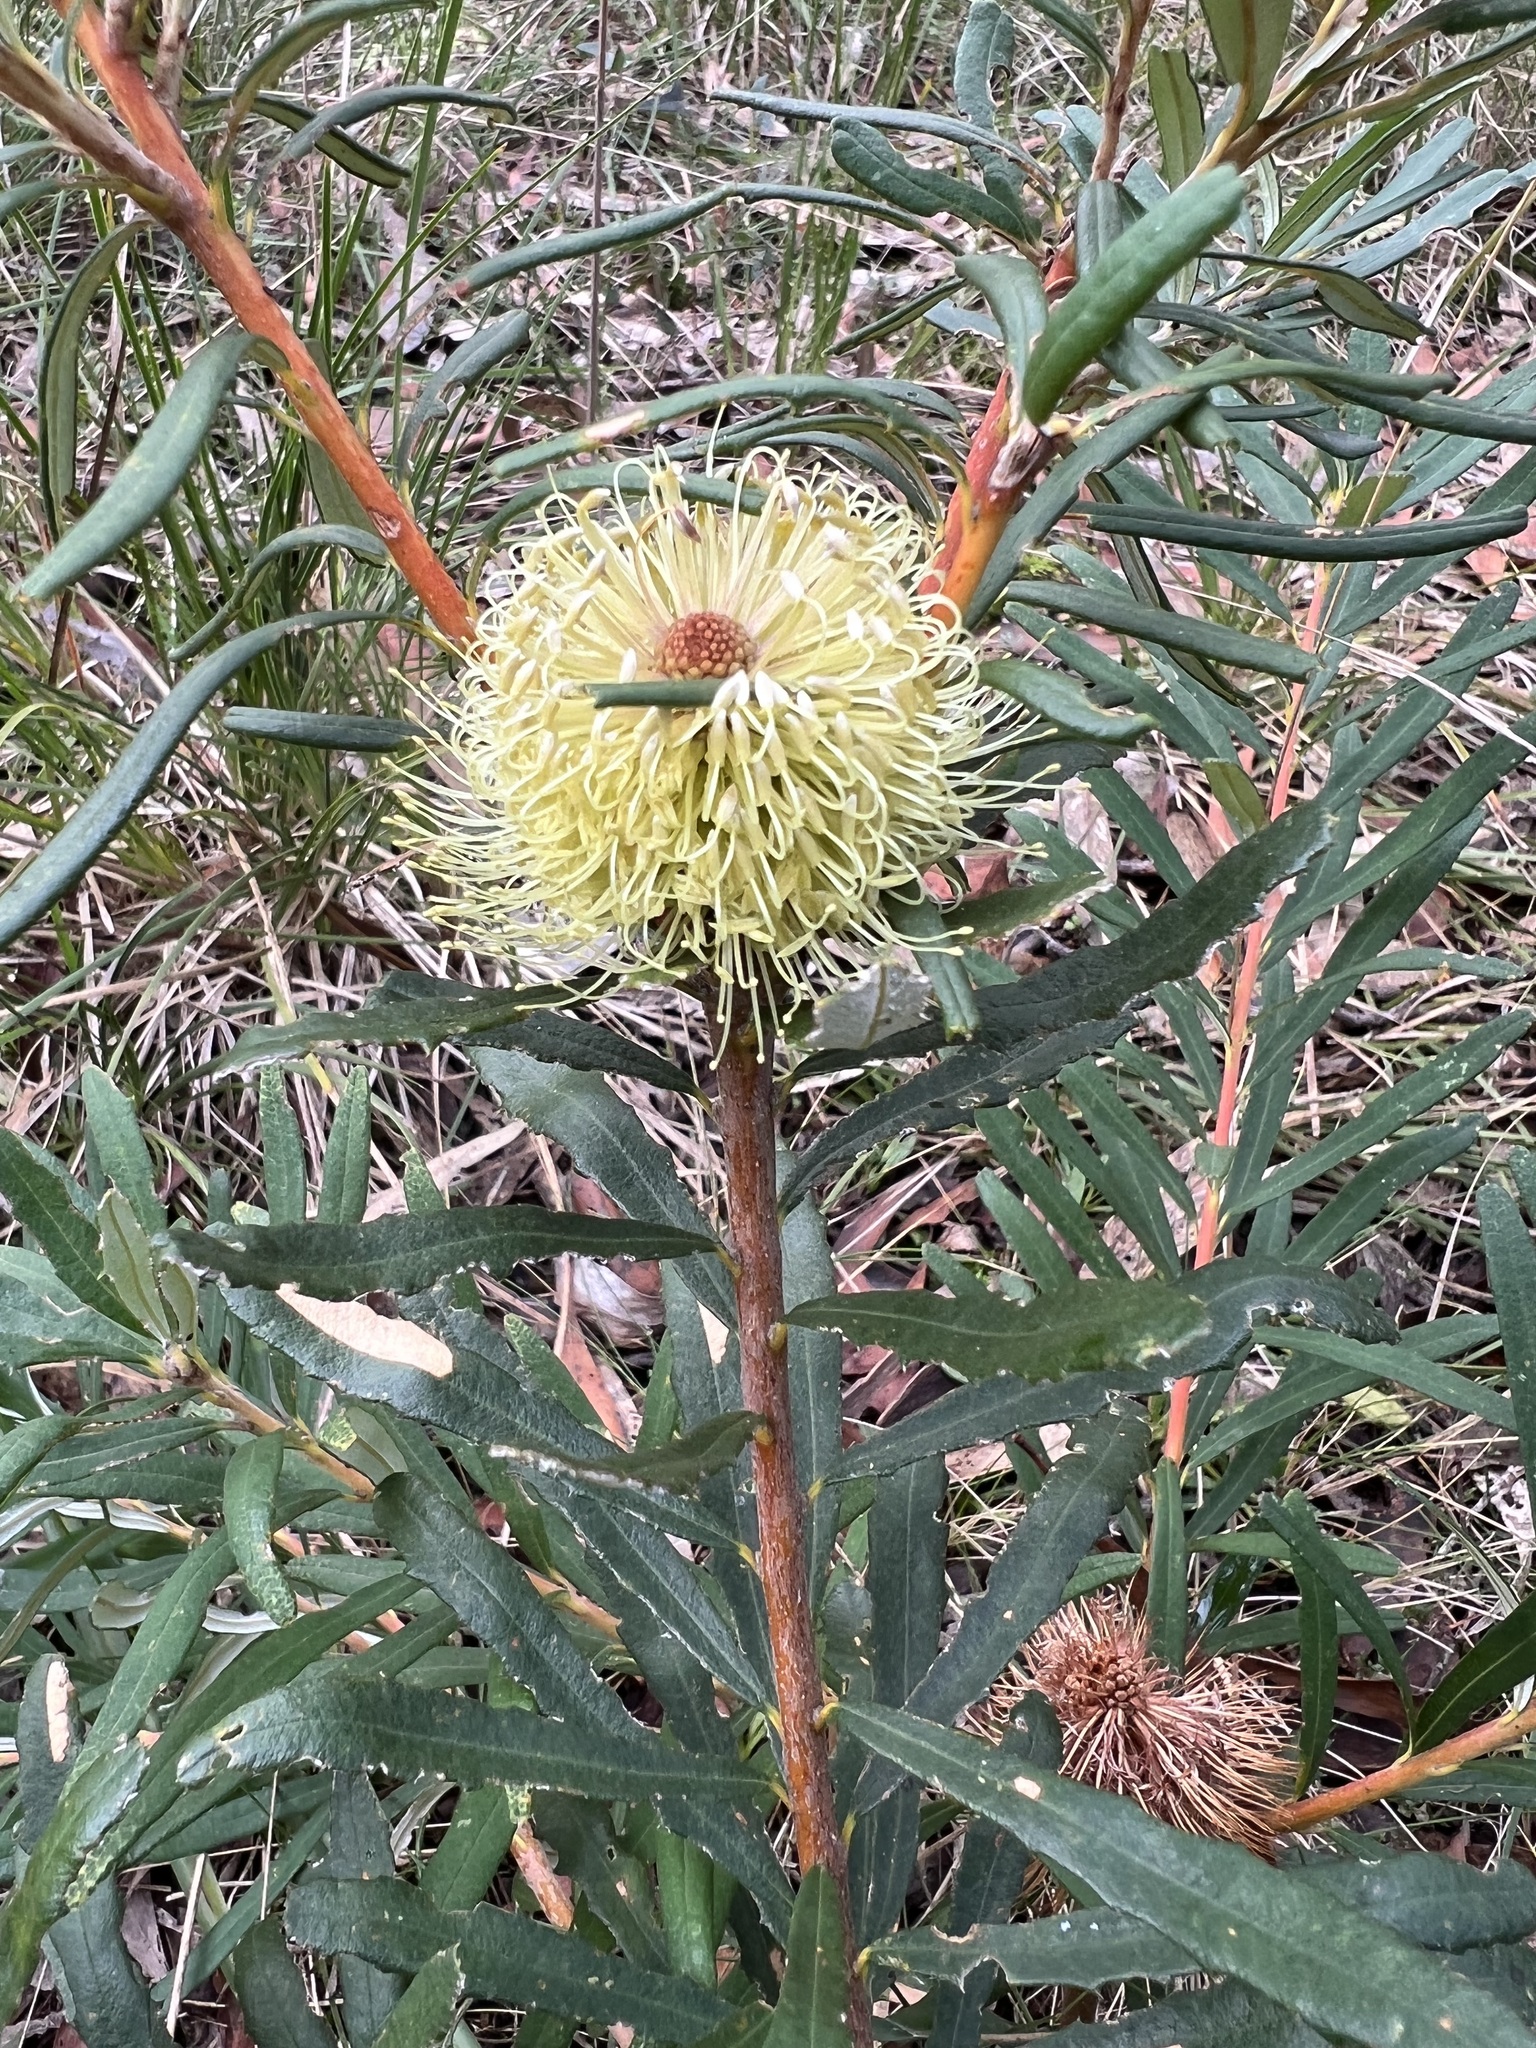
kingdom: Plantae
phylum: Tracheophyta
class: Magnoliopsida
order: Proteales
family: Proteaceae
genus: Banksia
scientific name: Banksia marginata
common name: Silver banksia
